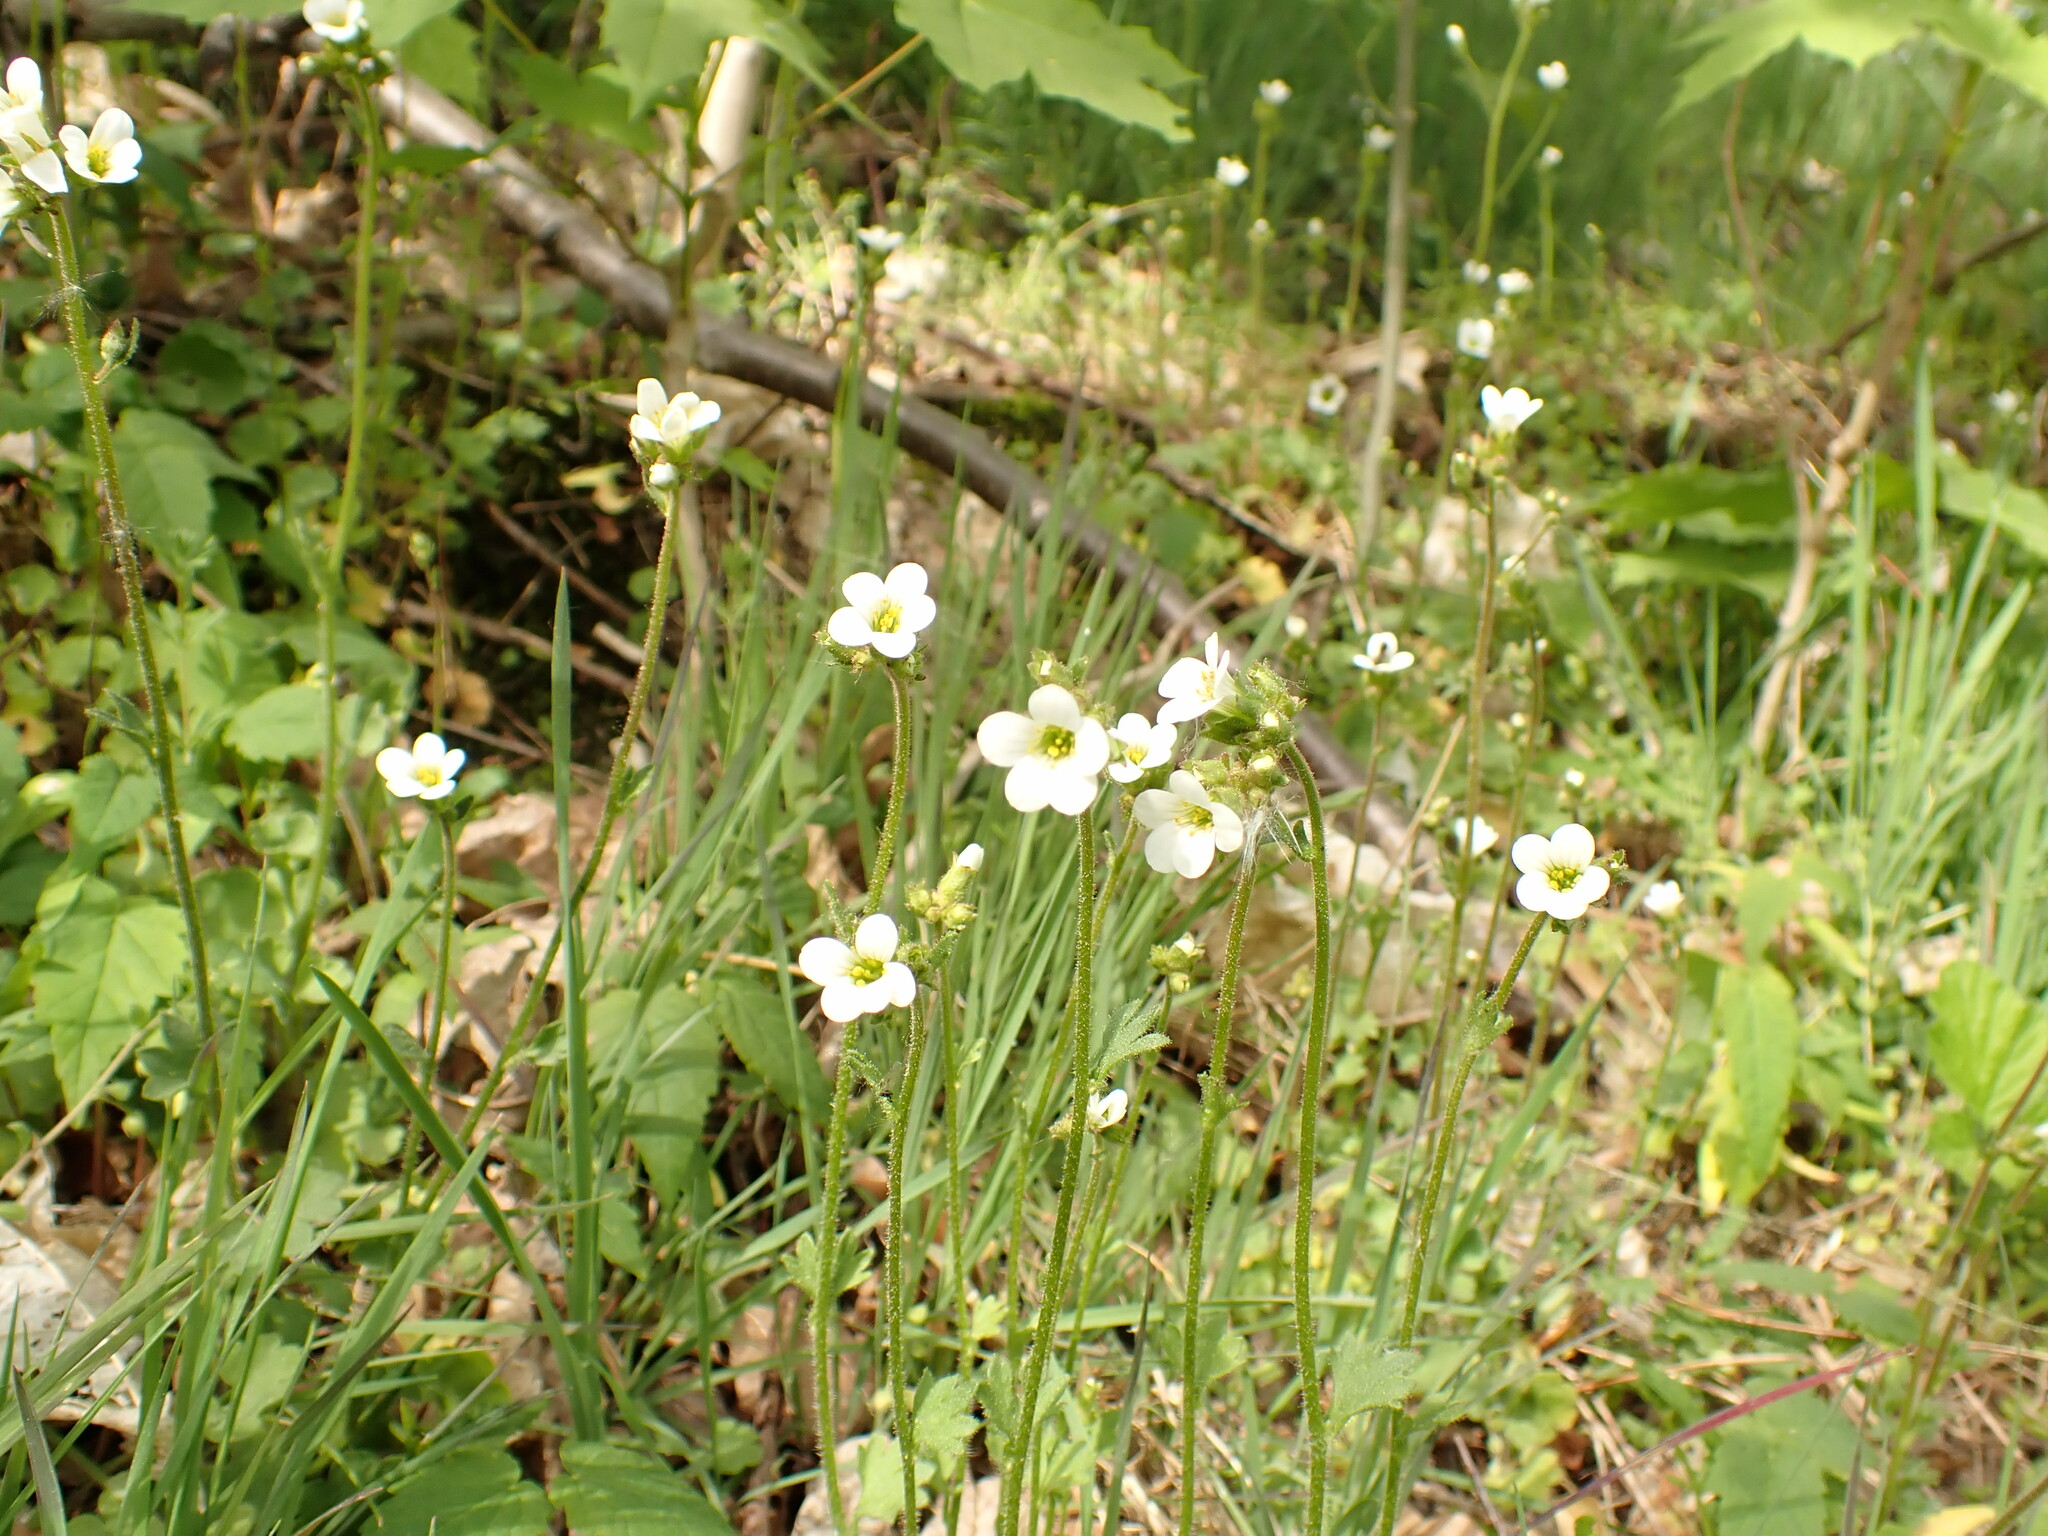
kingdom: Plantae
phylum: Tracheophyta
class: Magnoliopsida
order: Saxifragales
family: Saxifragaceae
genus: Saxifraga
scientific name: Saxifraga granulata
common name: Meadow saxifrage
